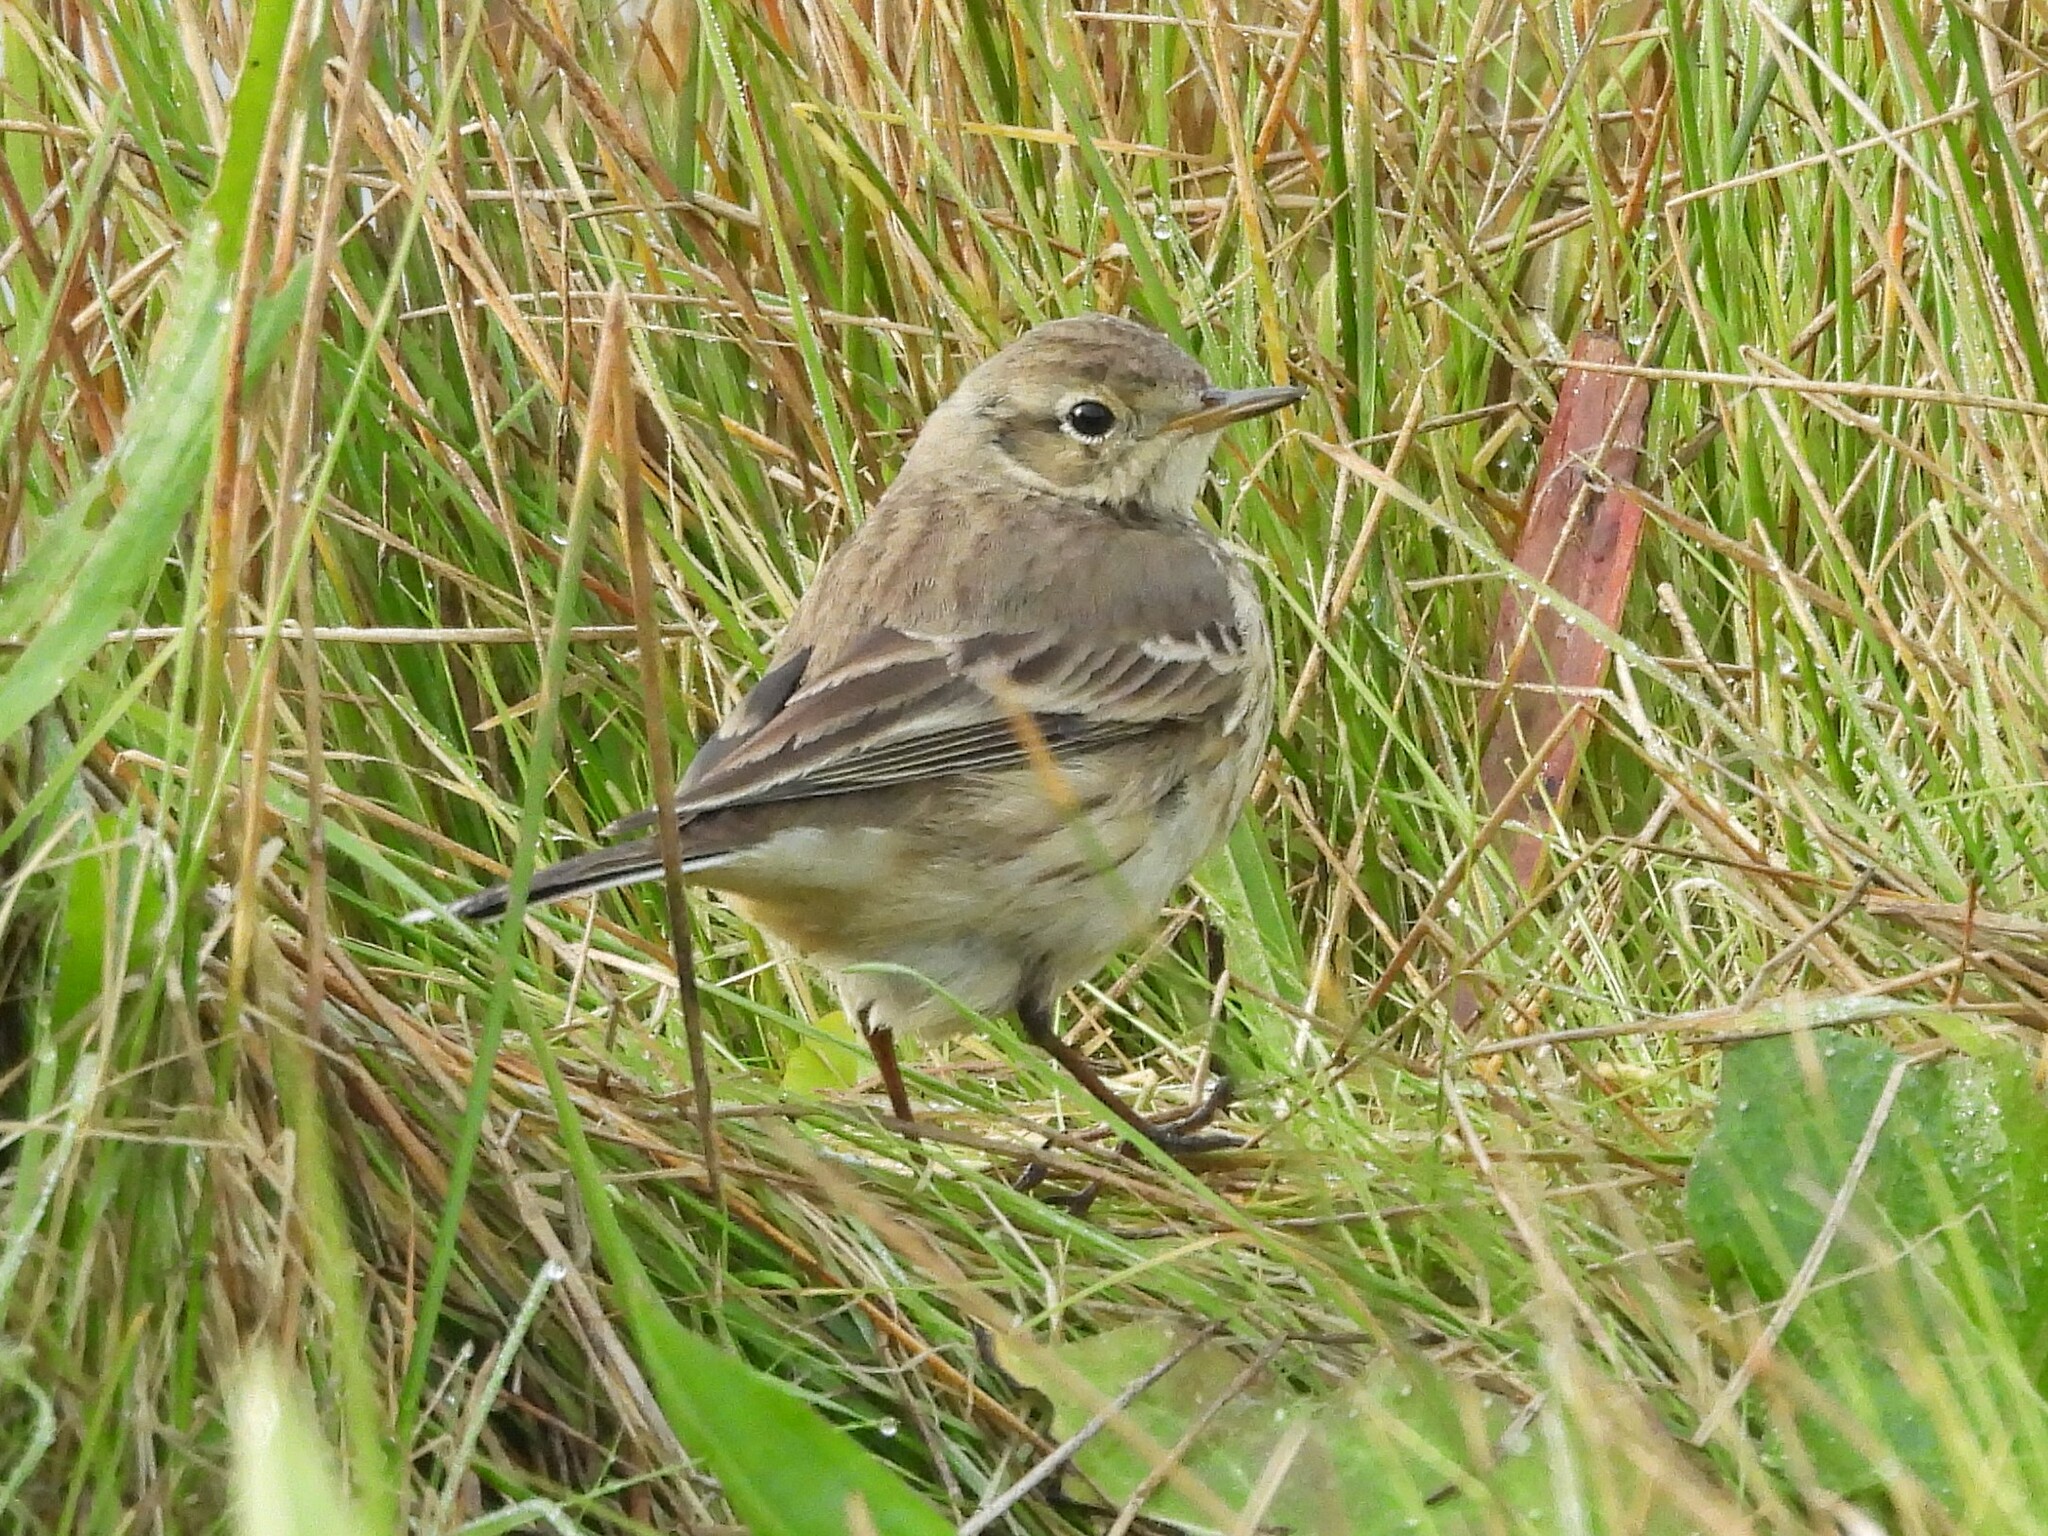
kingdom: Animalia
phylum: Chordata
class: Aves
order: Passeriformes
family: Motacillidae
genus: Anthus
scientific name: Anthus rubescens
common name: Buff-bellied pipit
